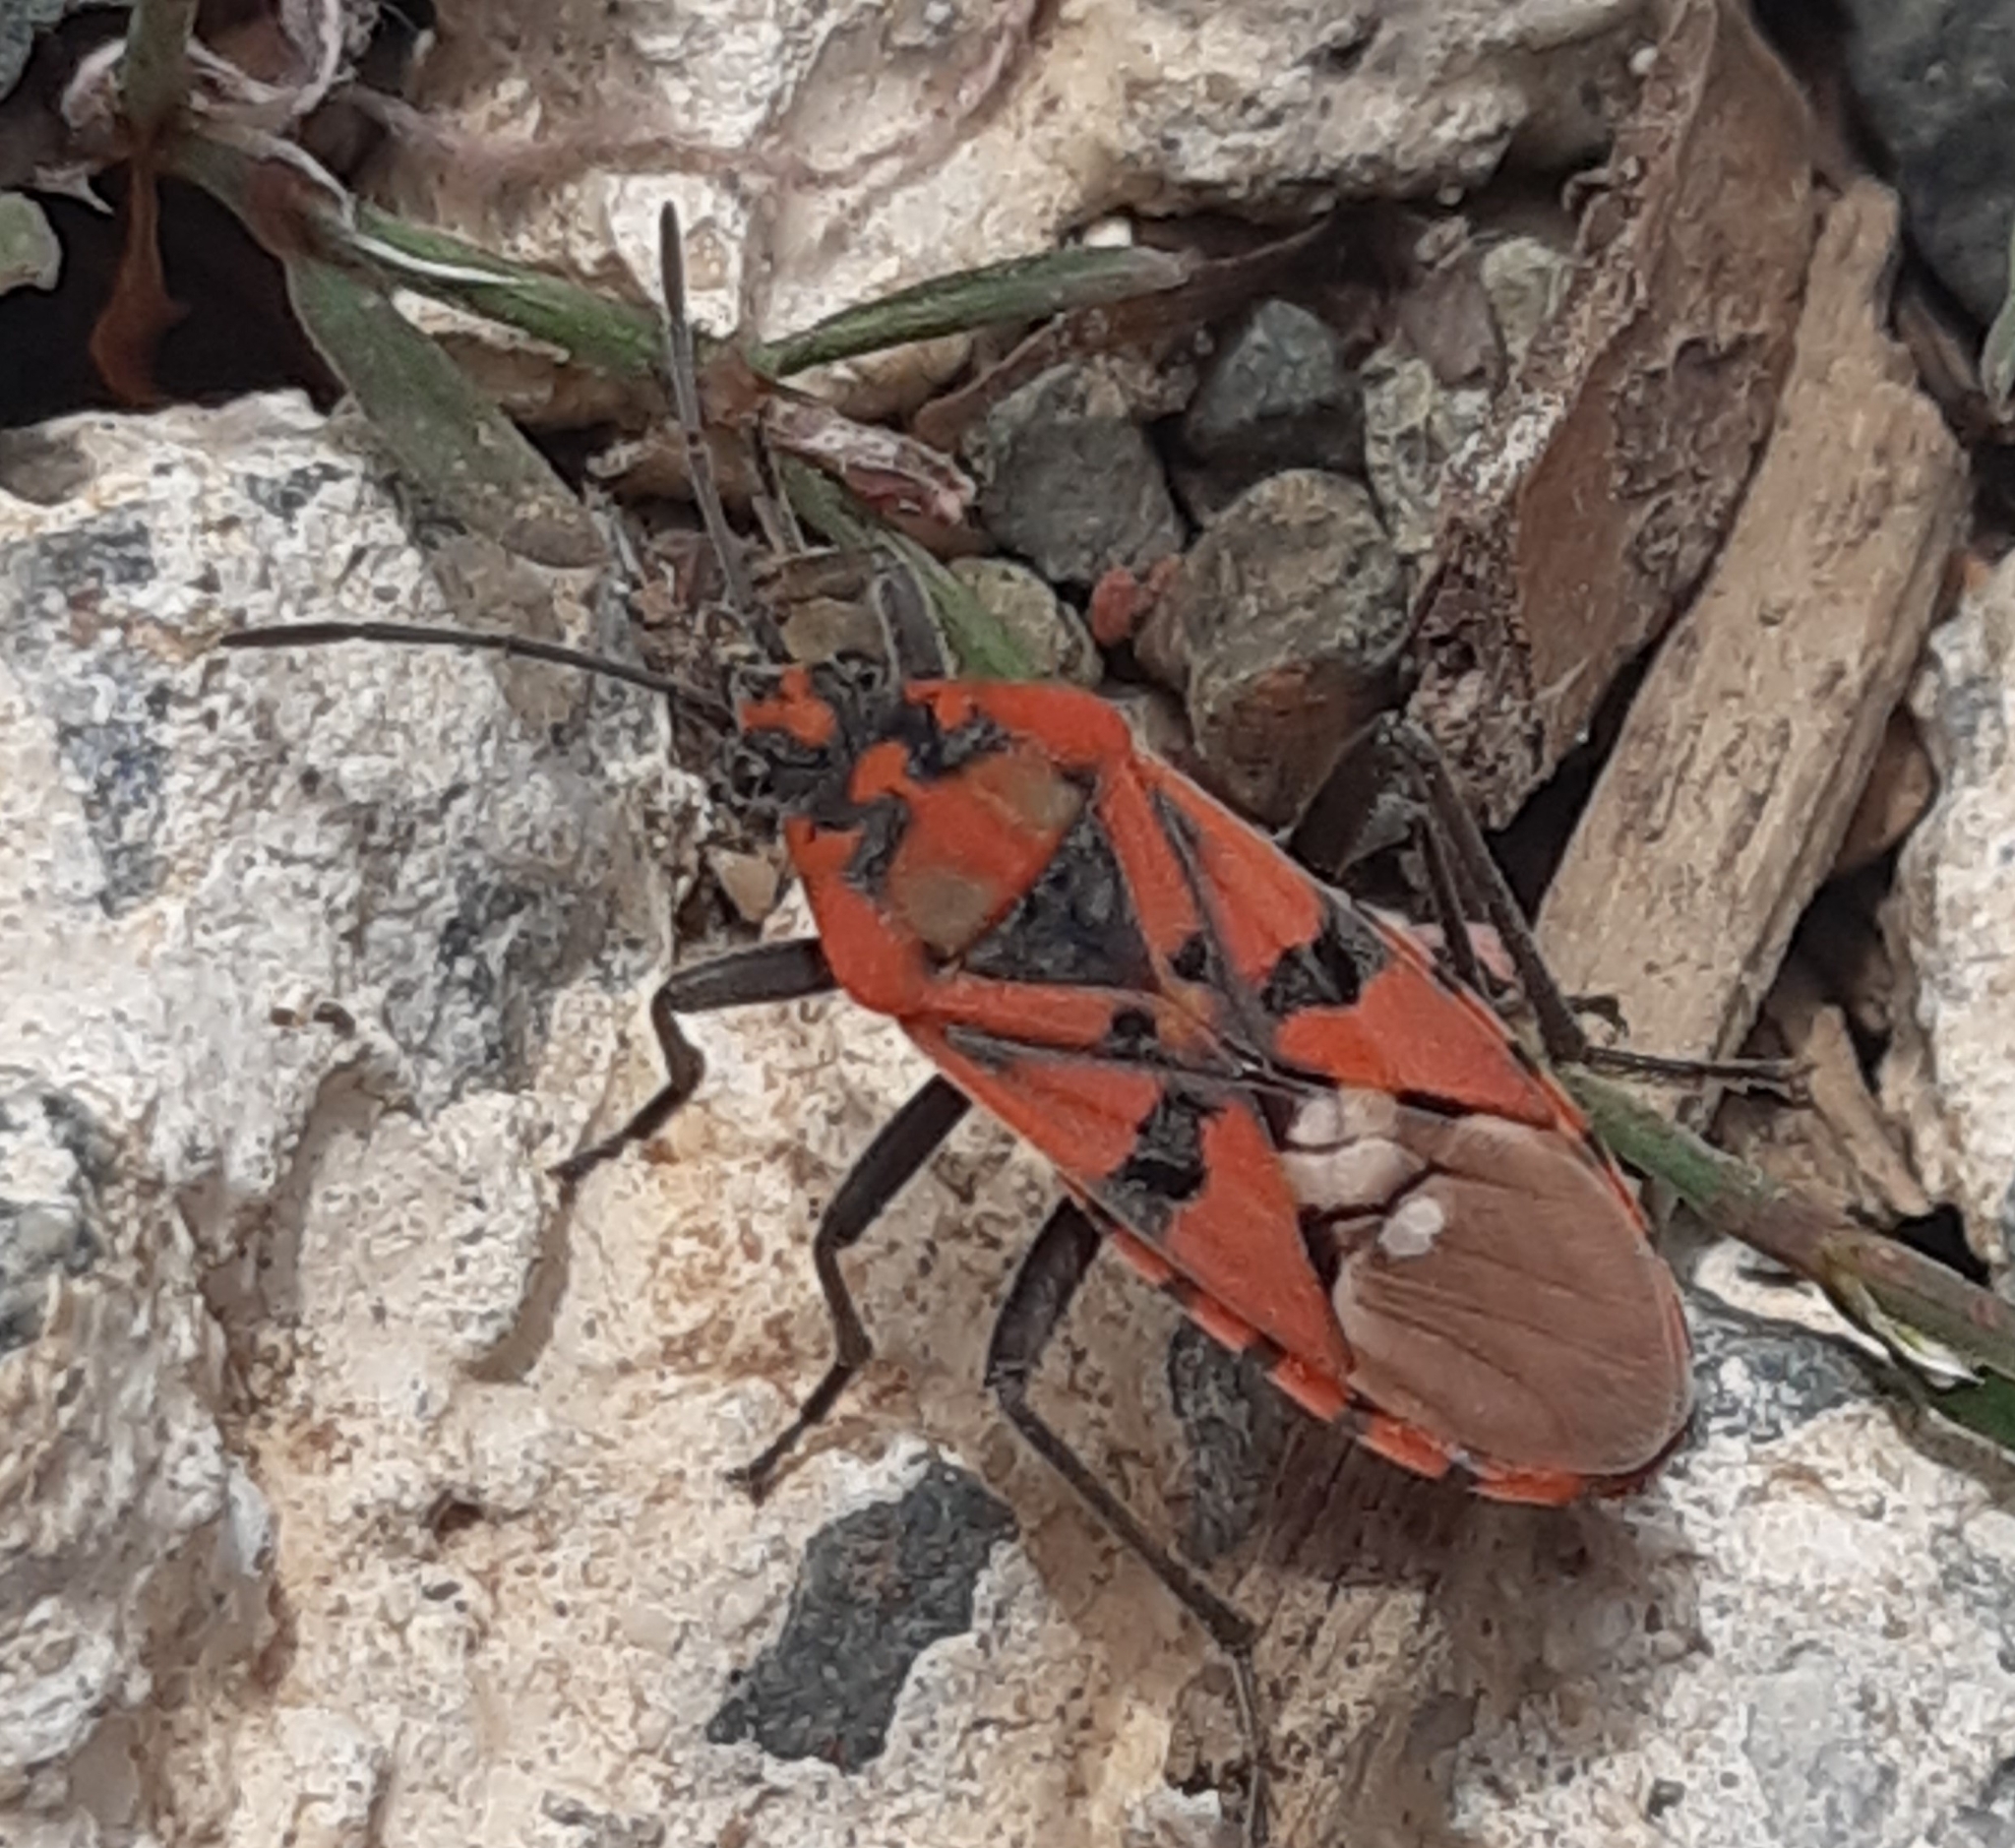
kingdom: Animalia
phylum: Arthropoda
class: Insecta
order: Hemiptera
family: Lygaeidae
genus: Spilostethus
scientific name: Spilostethus pandurus
